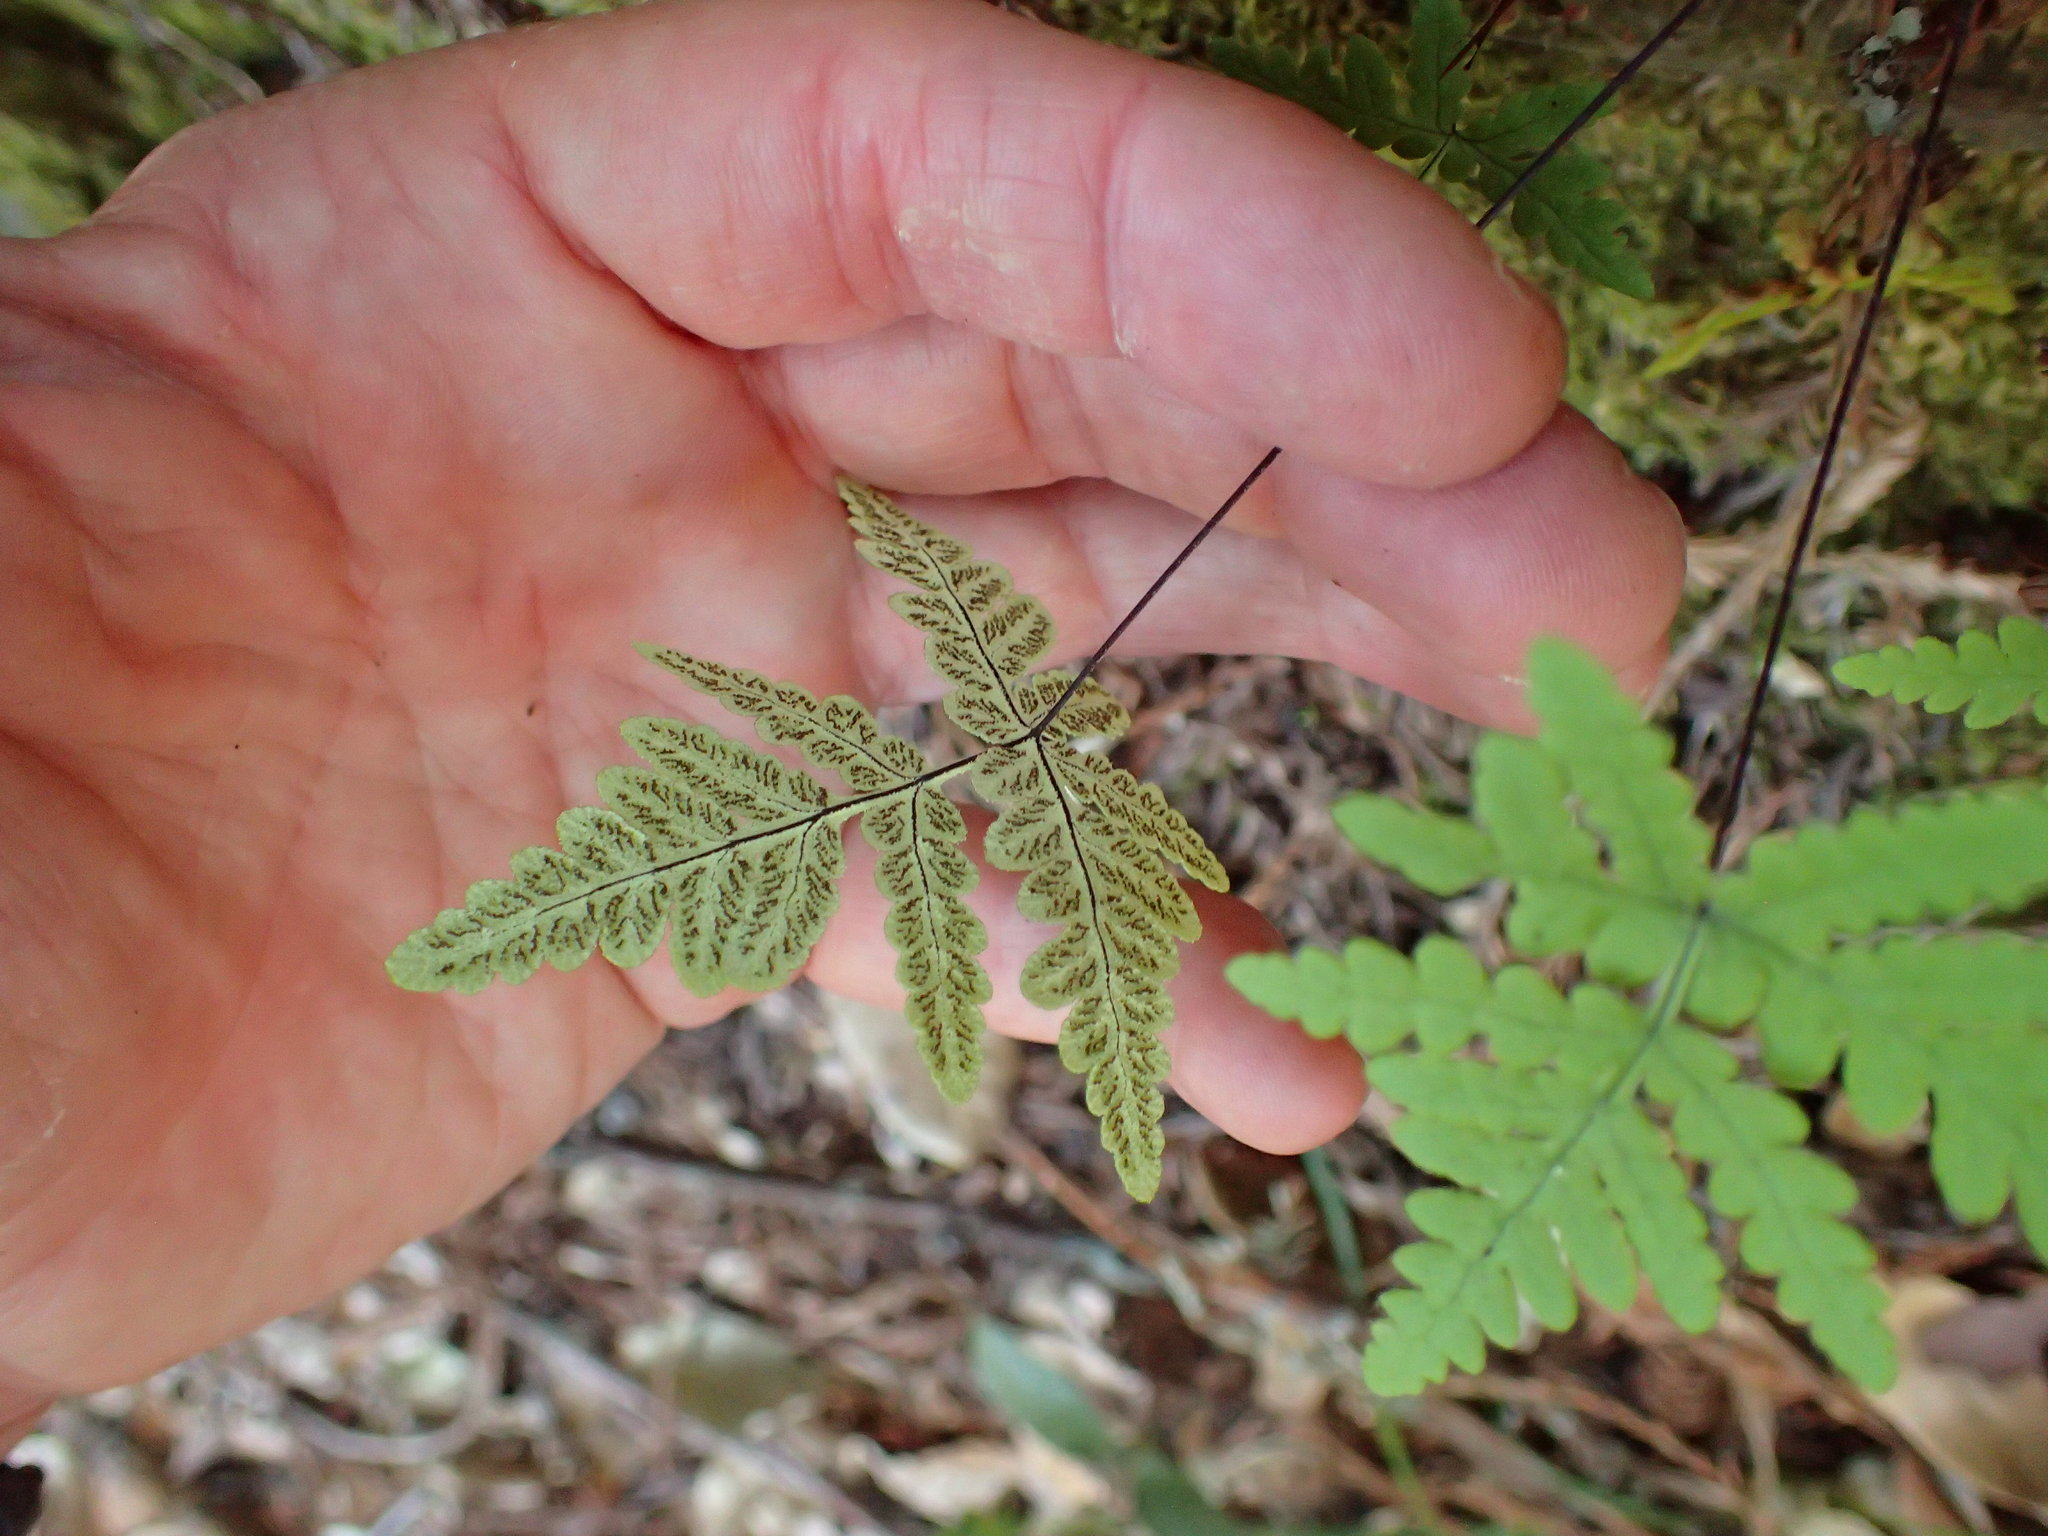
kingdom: Plantae
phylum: Tracheophyta
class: Polypodiopsida
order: Polypodiales
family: Pteridaceae
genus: Pentagramma
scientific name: Pentagramma triangularis
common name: Gold fern
